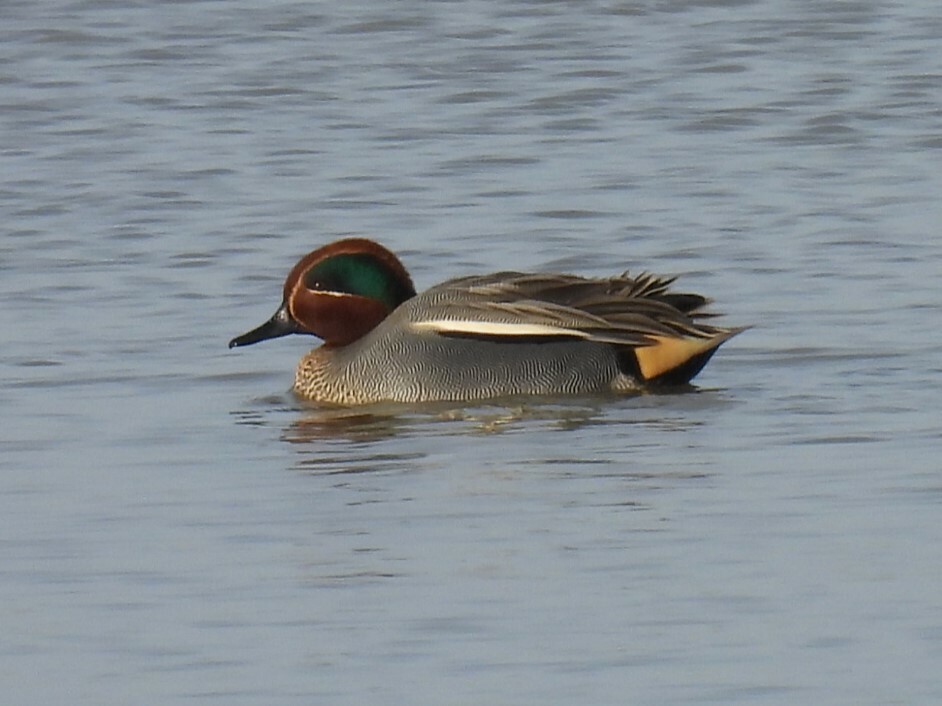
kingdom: Animalia
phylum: Chordata
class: Aves
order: Anseriformes
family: Anatidae
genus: Anas
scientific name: Anas crecca
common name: Eurasian teal
